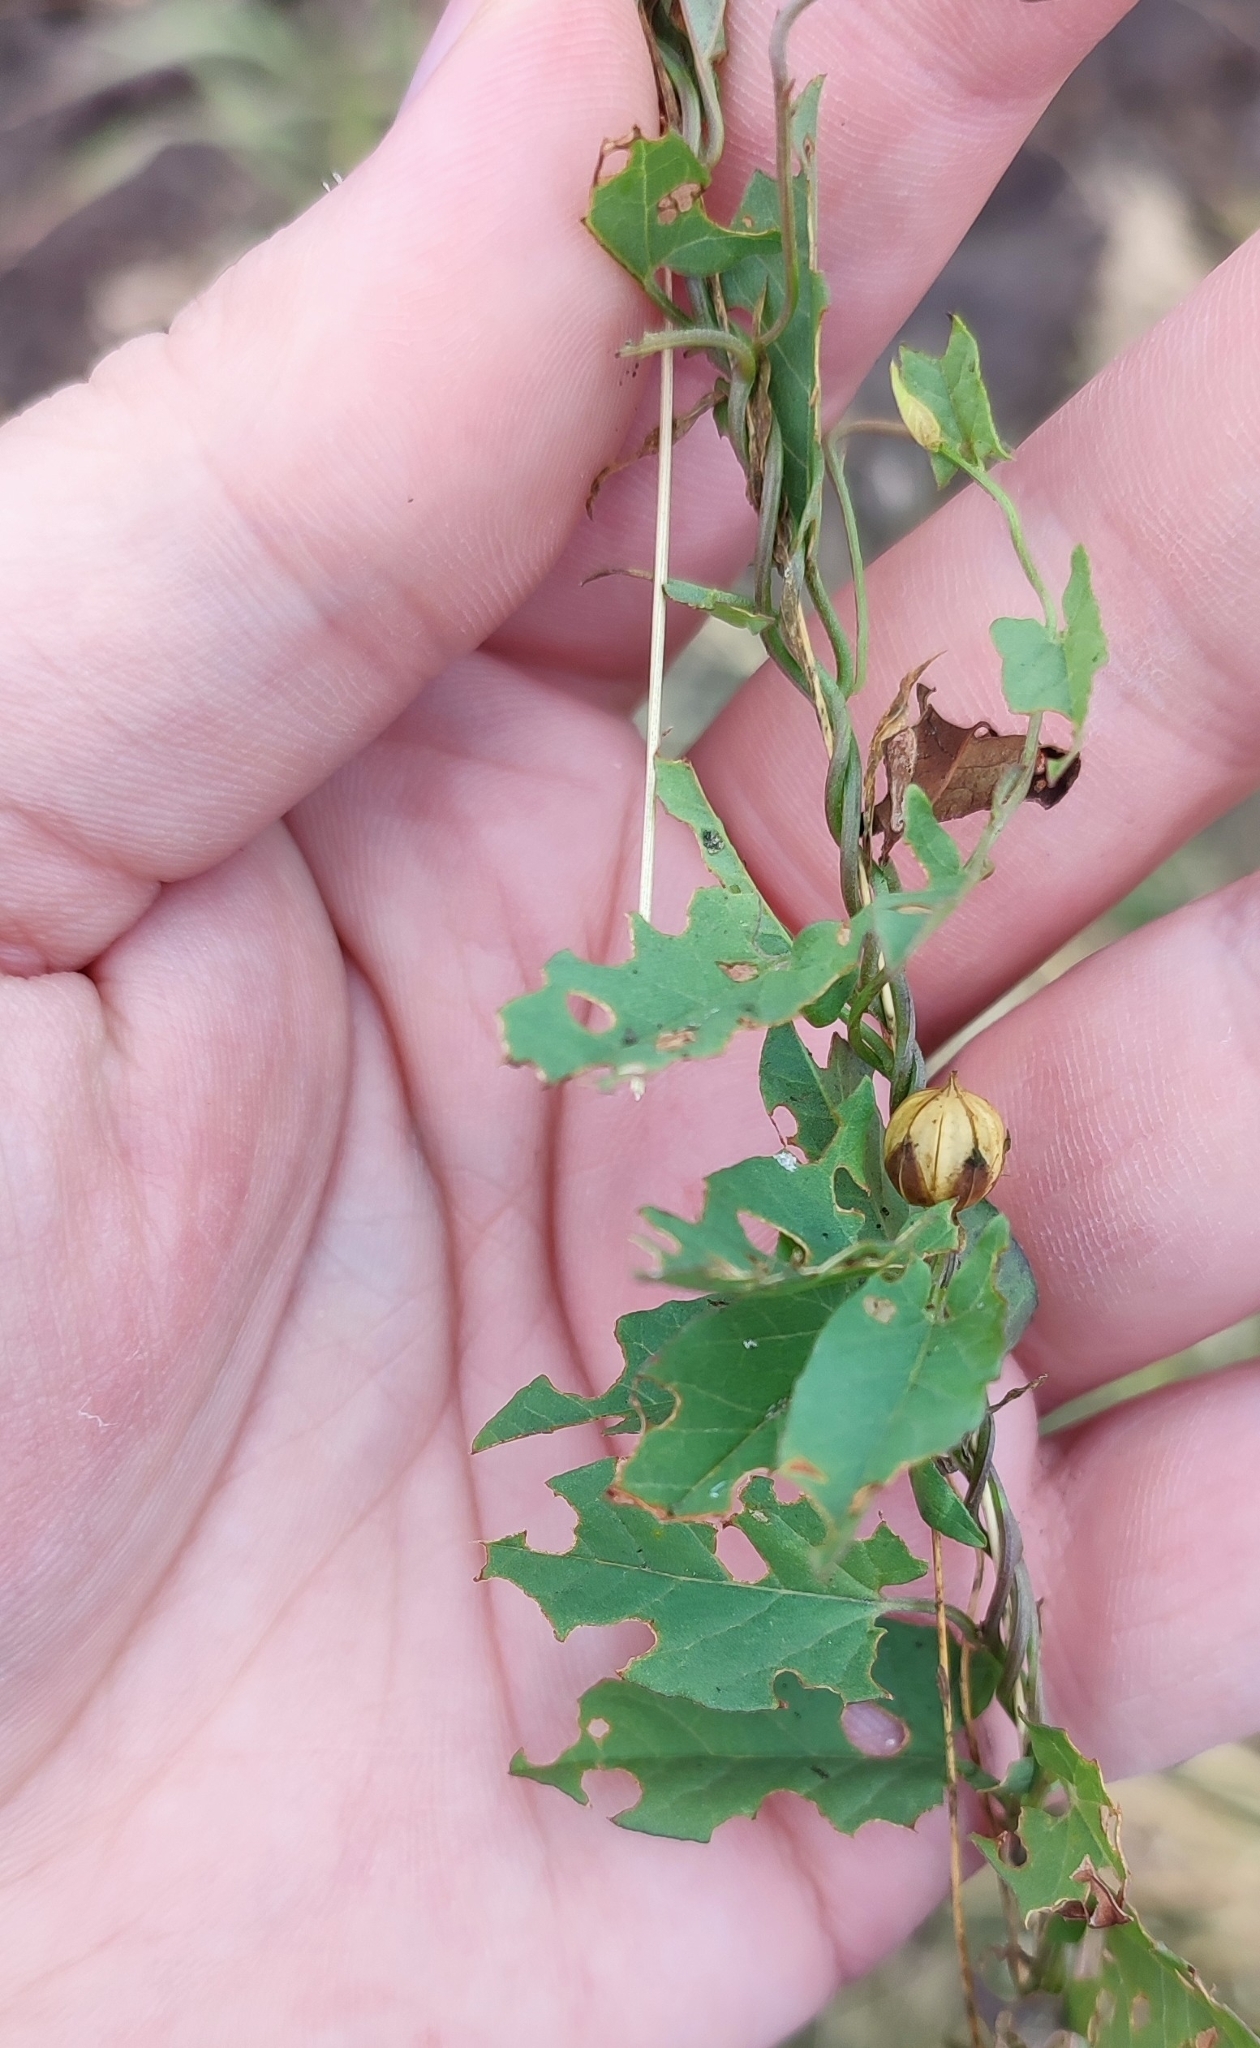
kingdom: Plantae
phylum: Tracheophyta
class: Magnoliopsida
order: Solanales
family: Convolvulaceae
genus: Convolvulus
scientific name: Convolvulus arvensis
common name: Field bindweed
